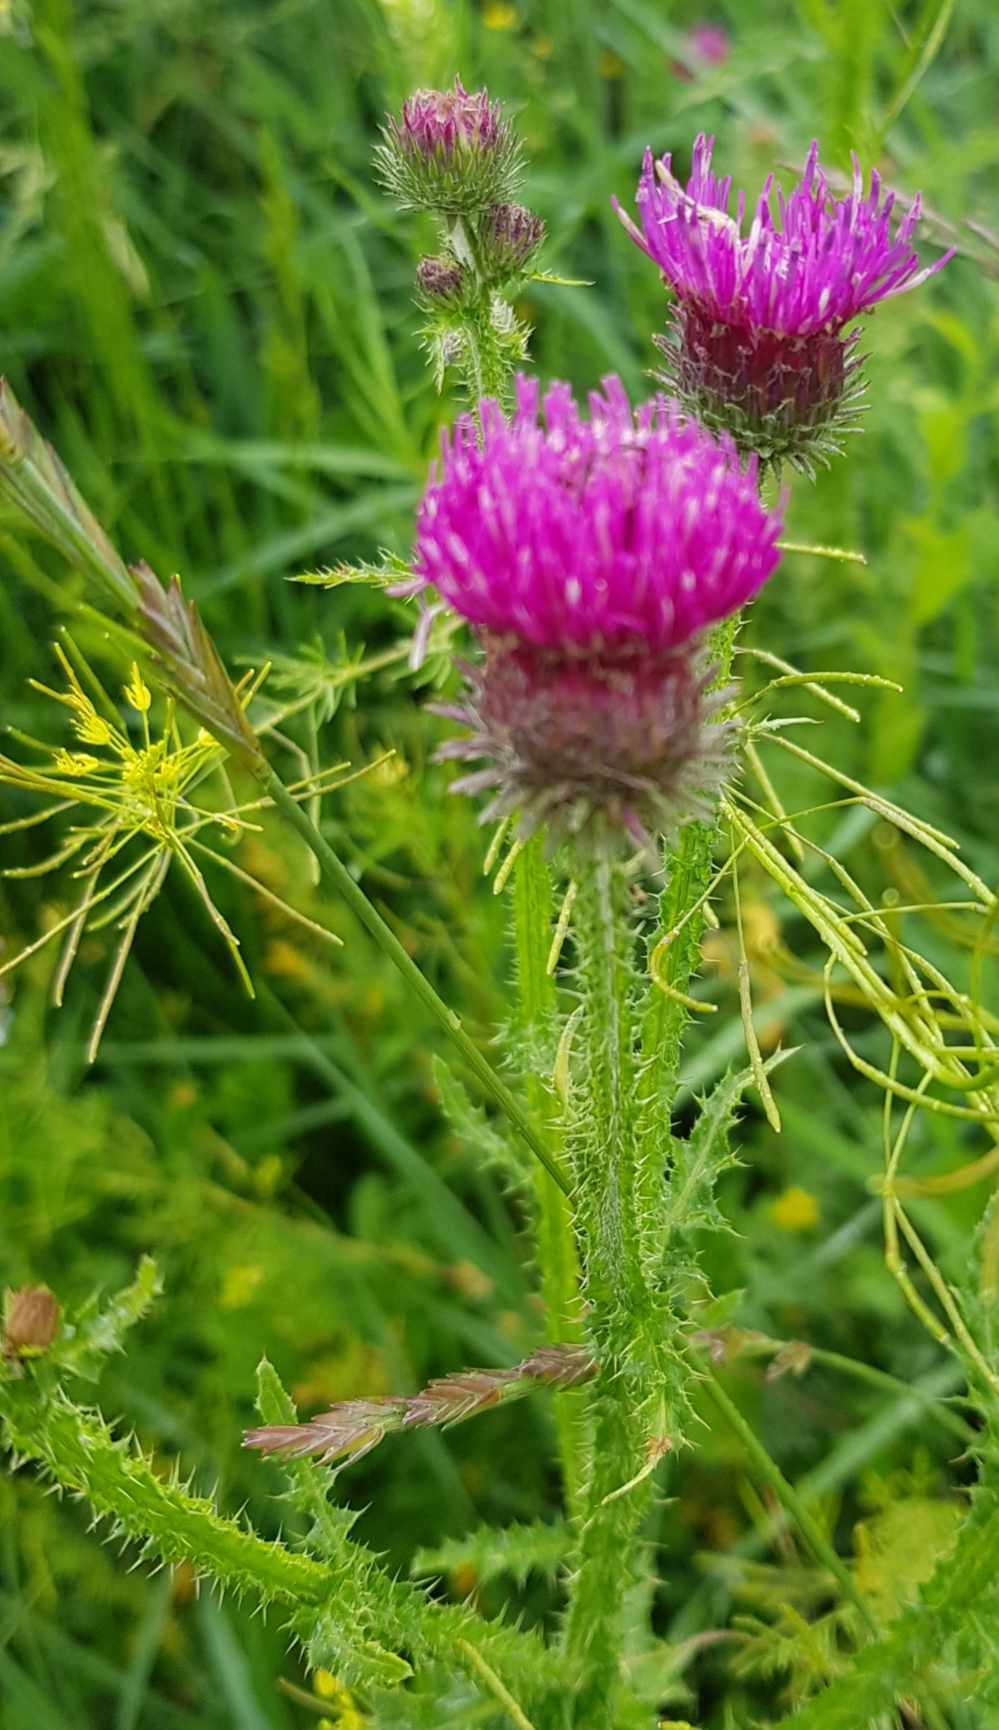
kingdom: Plantae
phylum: Tracheophyta
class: Magnoliopsida
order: Asterales
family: Asteraceae
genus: Carduus
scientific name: Carduus crispus
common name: Welted thistle
